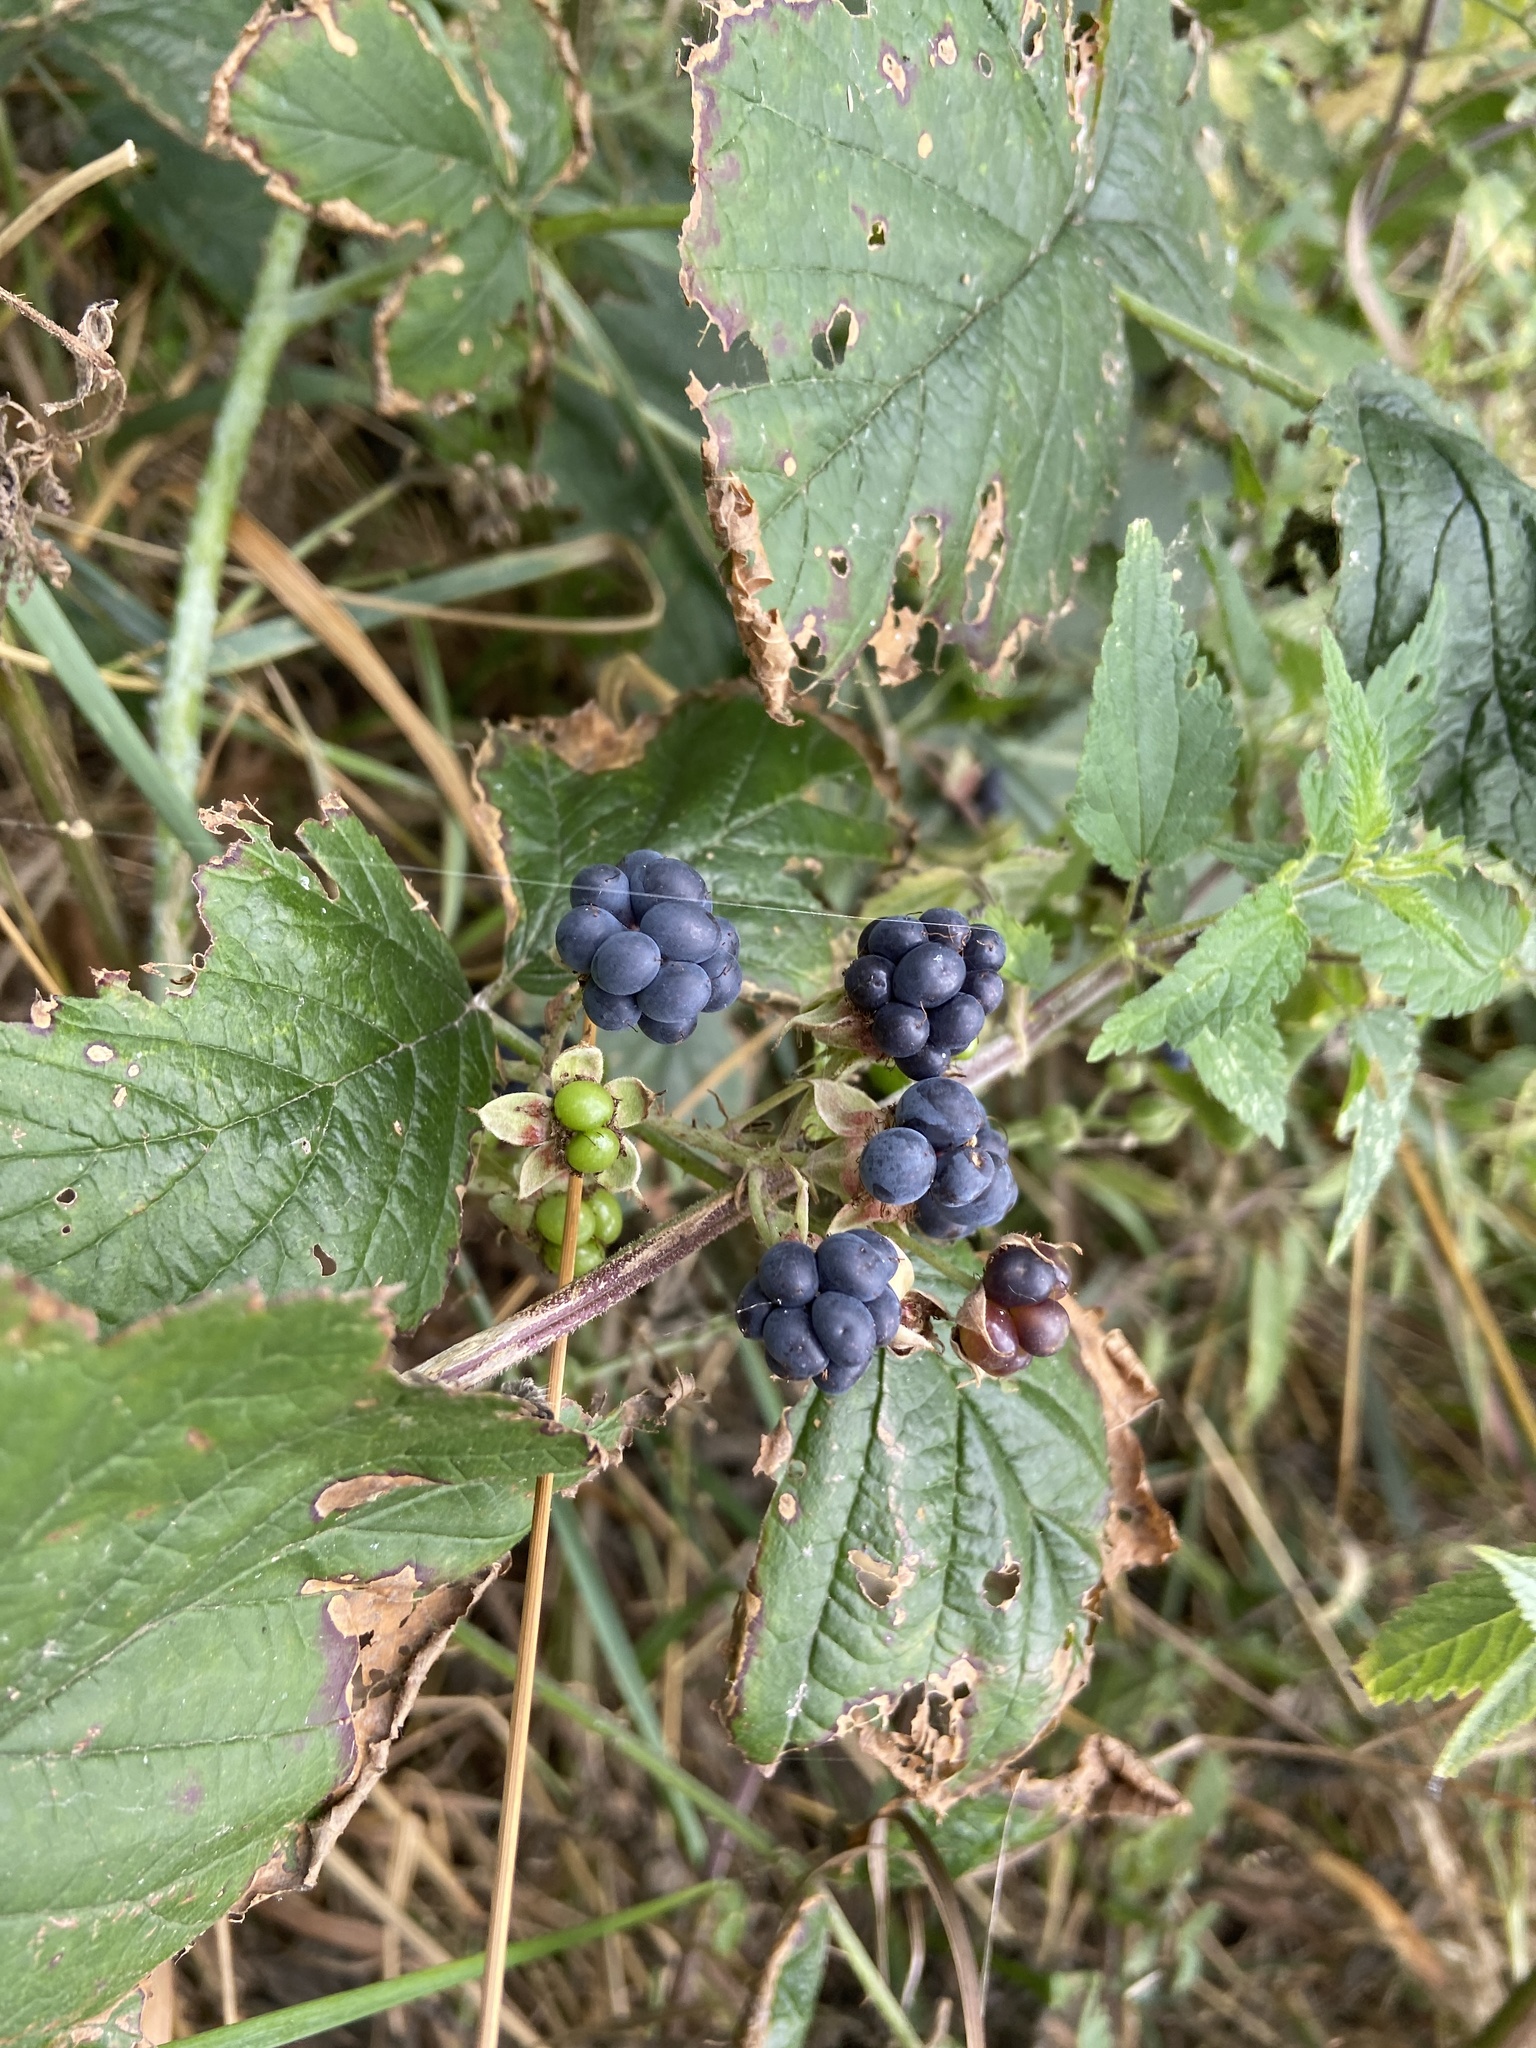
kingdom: Plantae
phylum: Tracheophyta
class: Magnoliopsida
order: Rosales
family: Rosaceae
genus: Rubus
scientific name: Rubus caesius
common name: Dewberry
